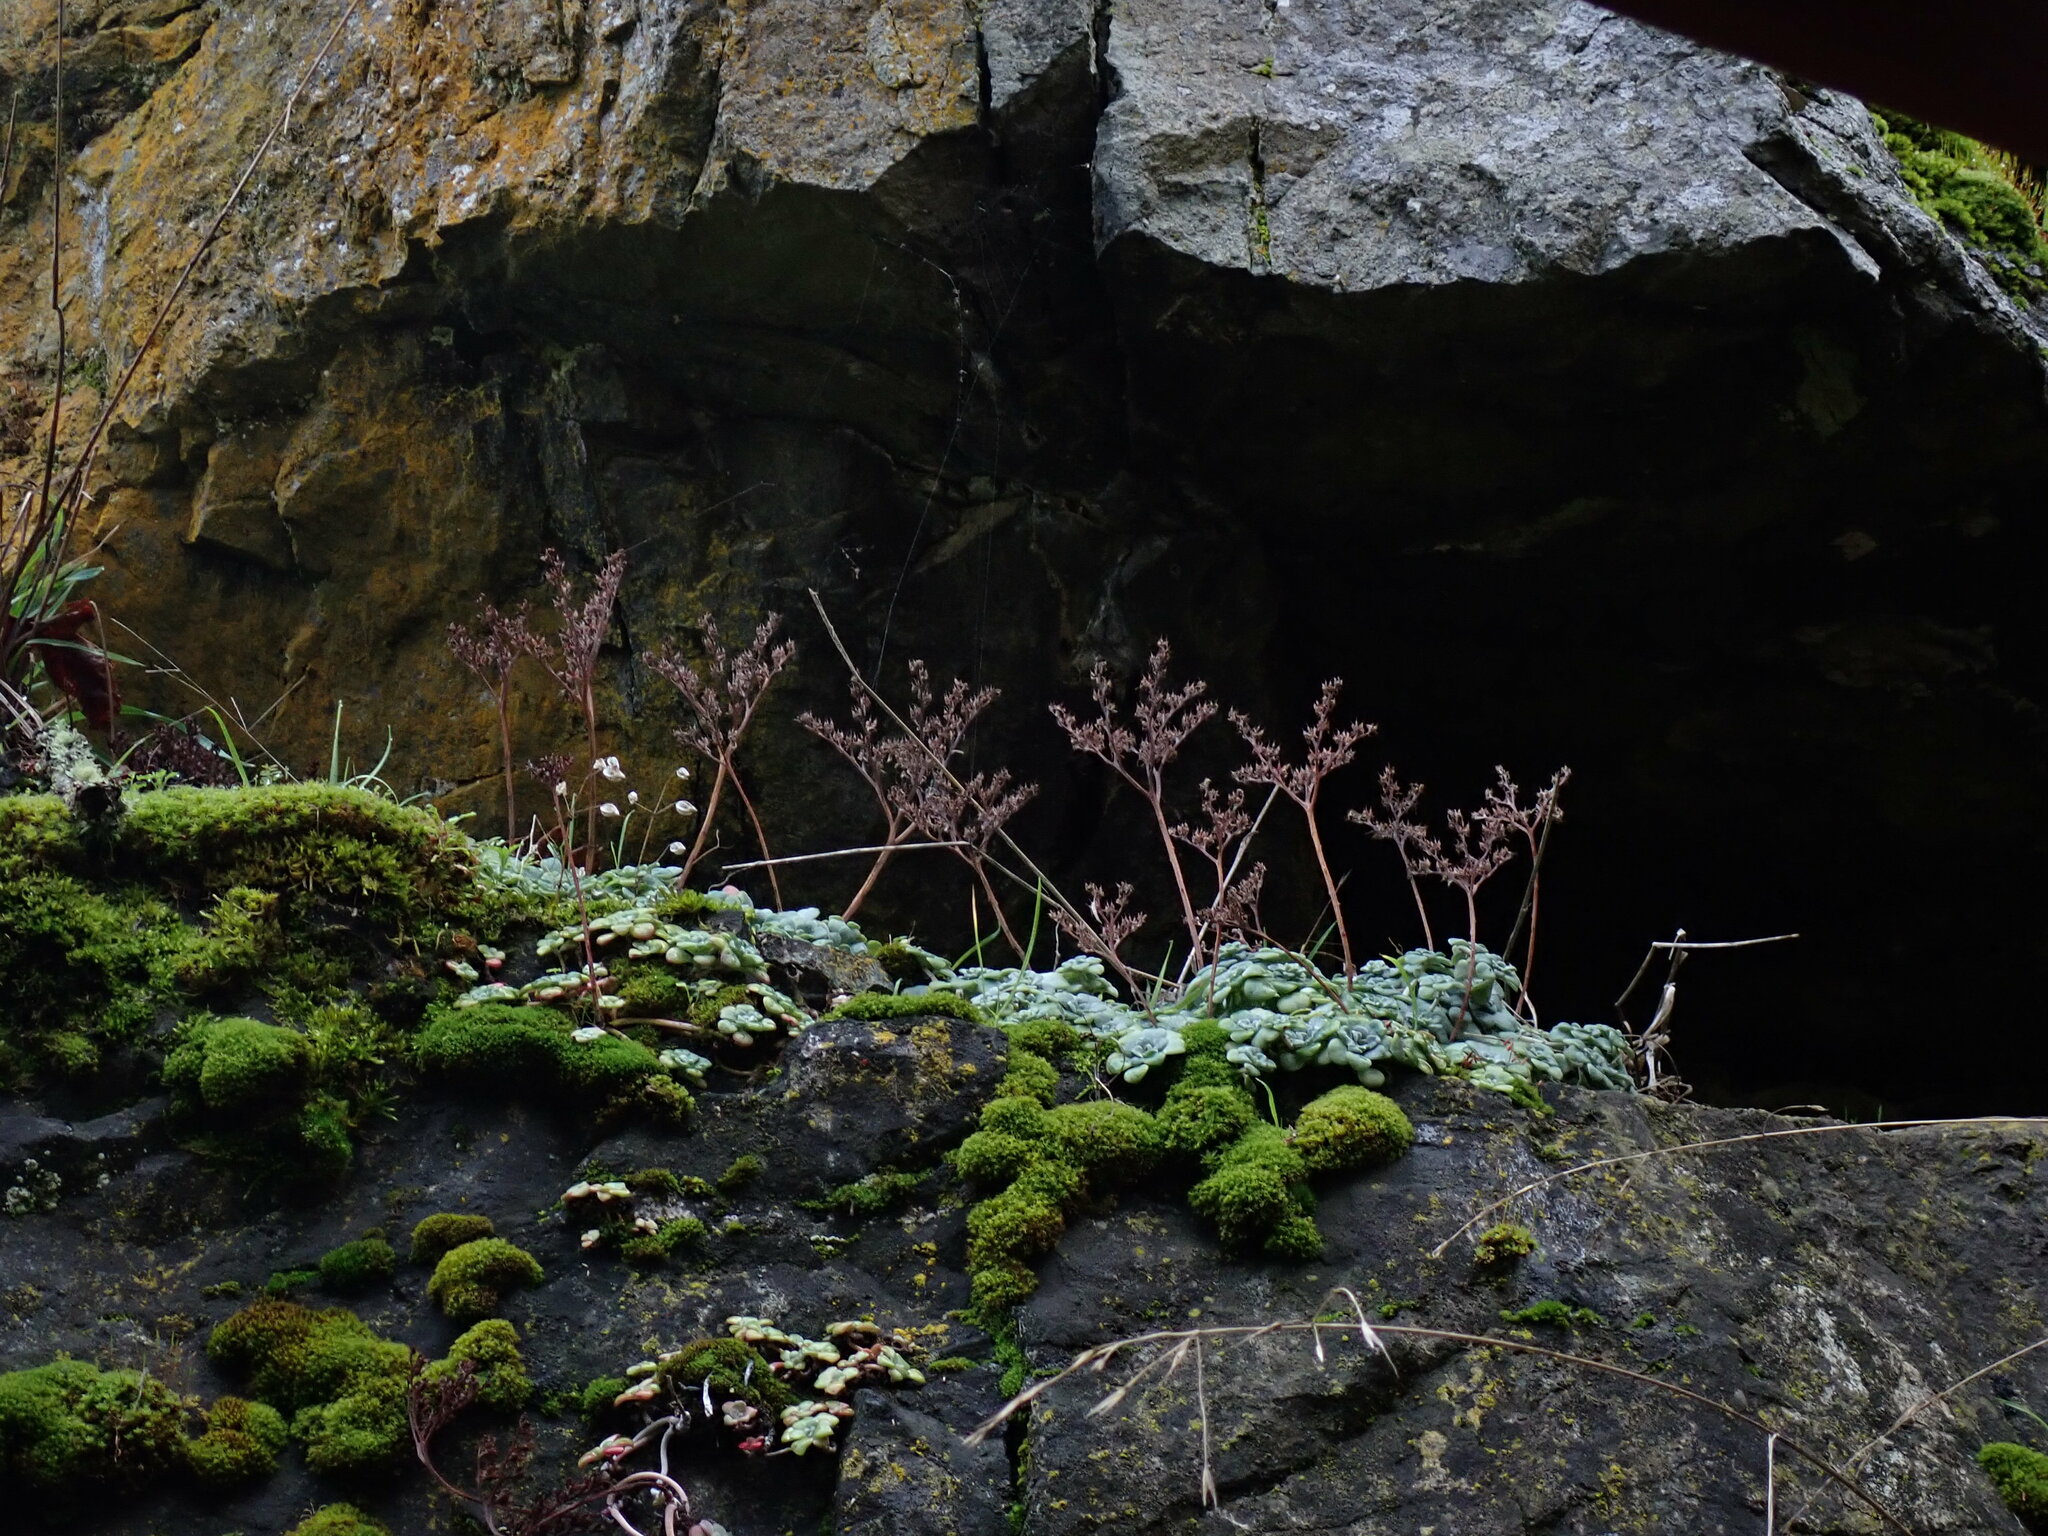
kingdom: Plantae
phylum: Tracheophyta
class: Magnoliopsida
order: Saxifragales
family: Crassulaceae
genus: Sedum
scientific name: Sedum spathulifolium
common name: Colorado stonecrop
